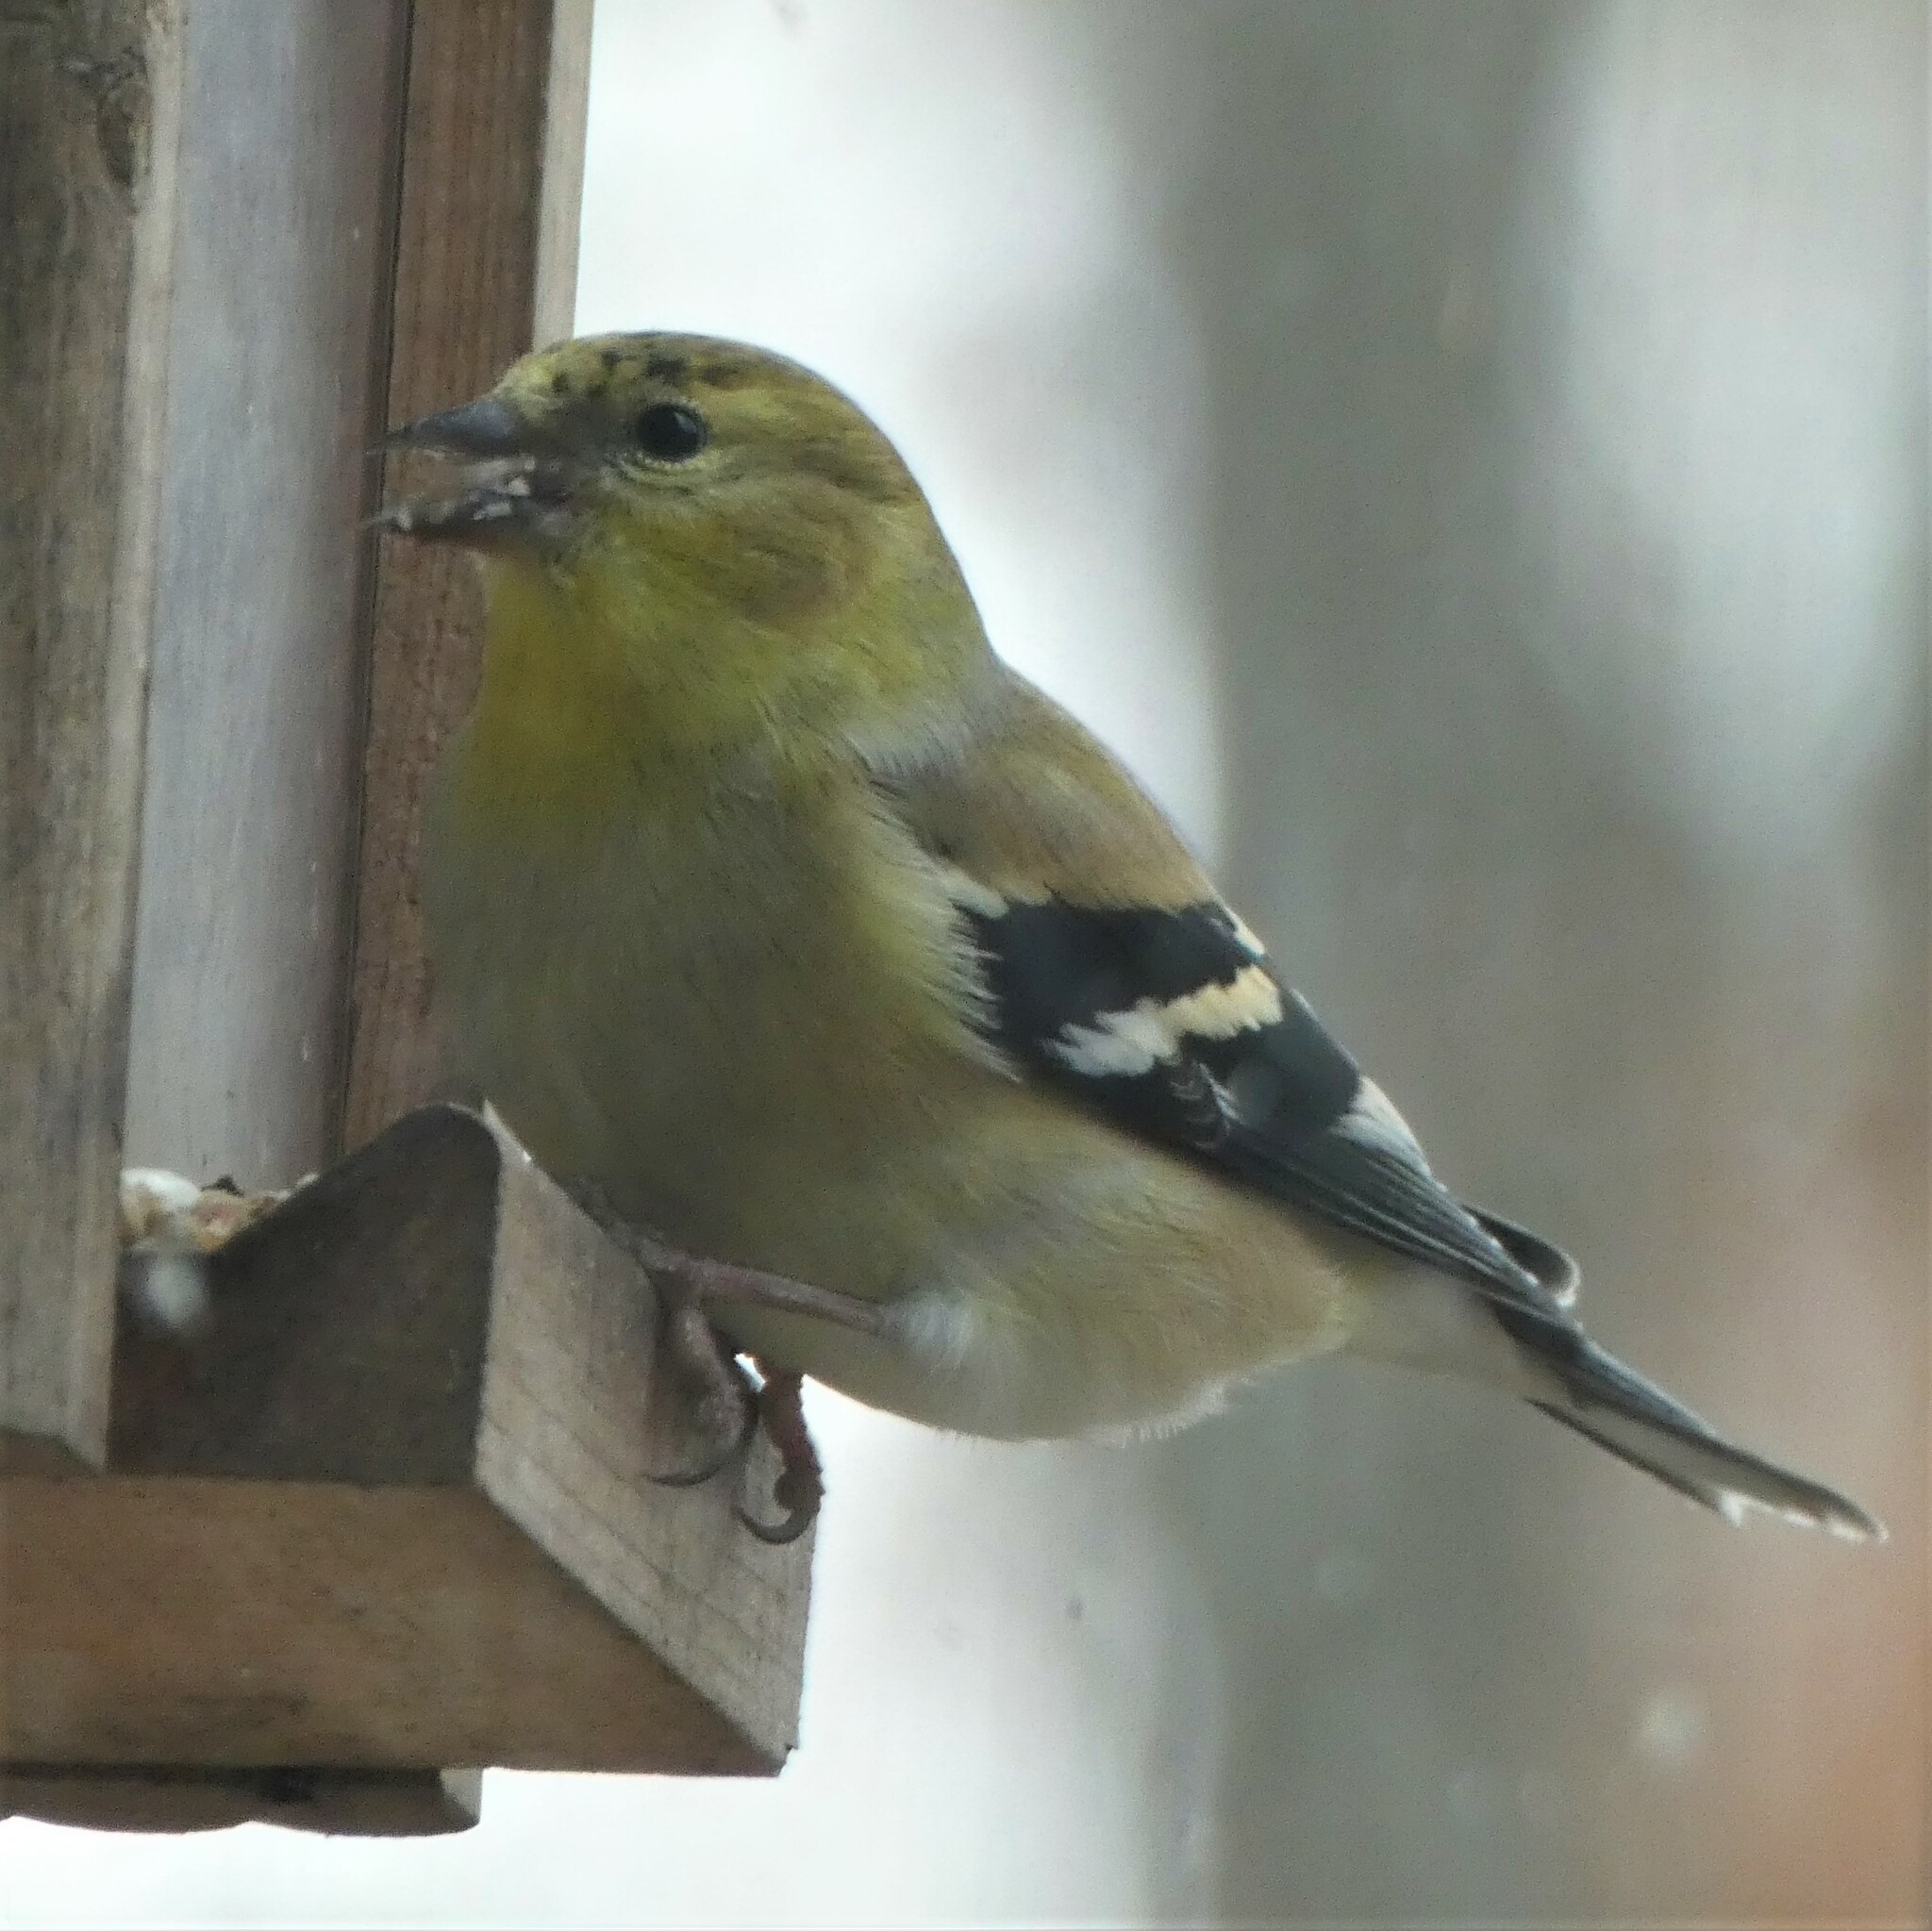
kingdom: Animalia
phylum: Chordata
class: Aves
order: Passeriformes
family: Fringillidae
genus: Spinus
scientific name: Spinus tristis
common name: American goldfinch
